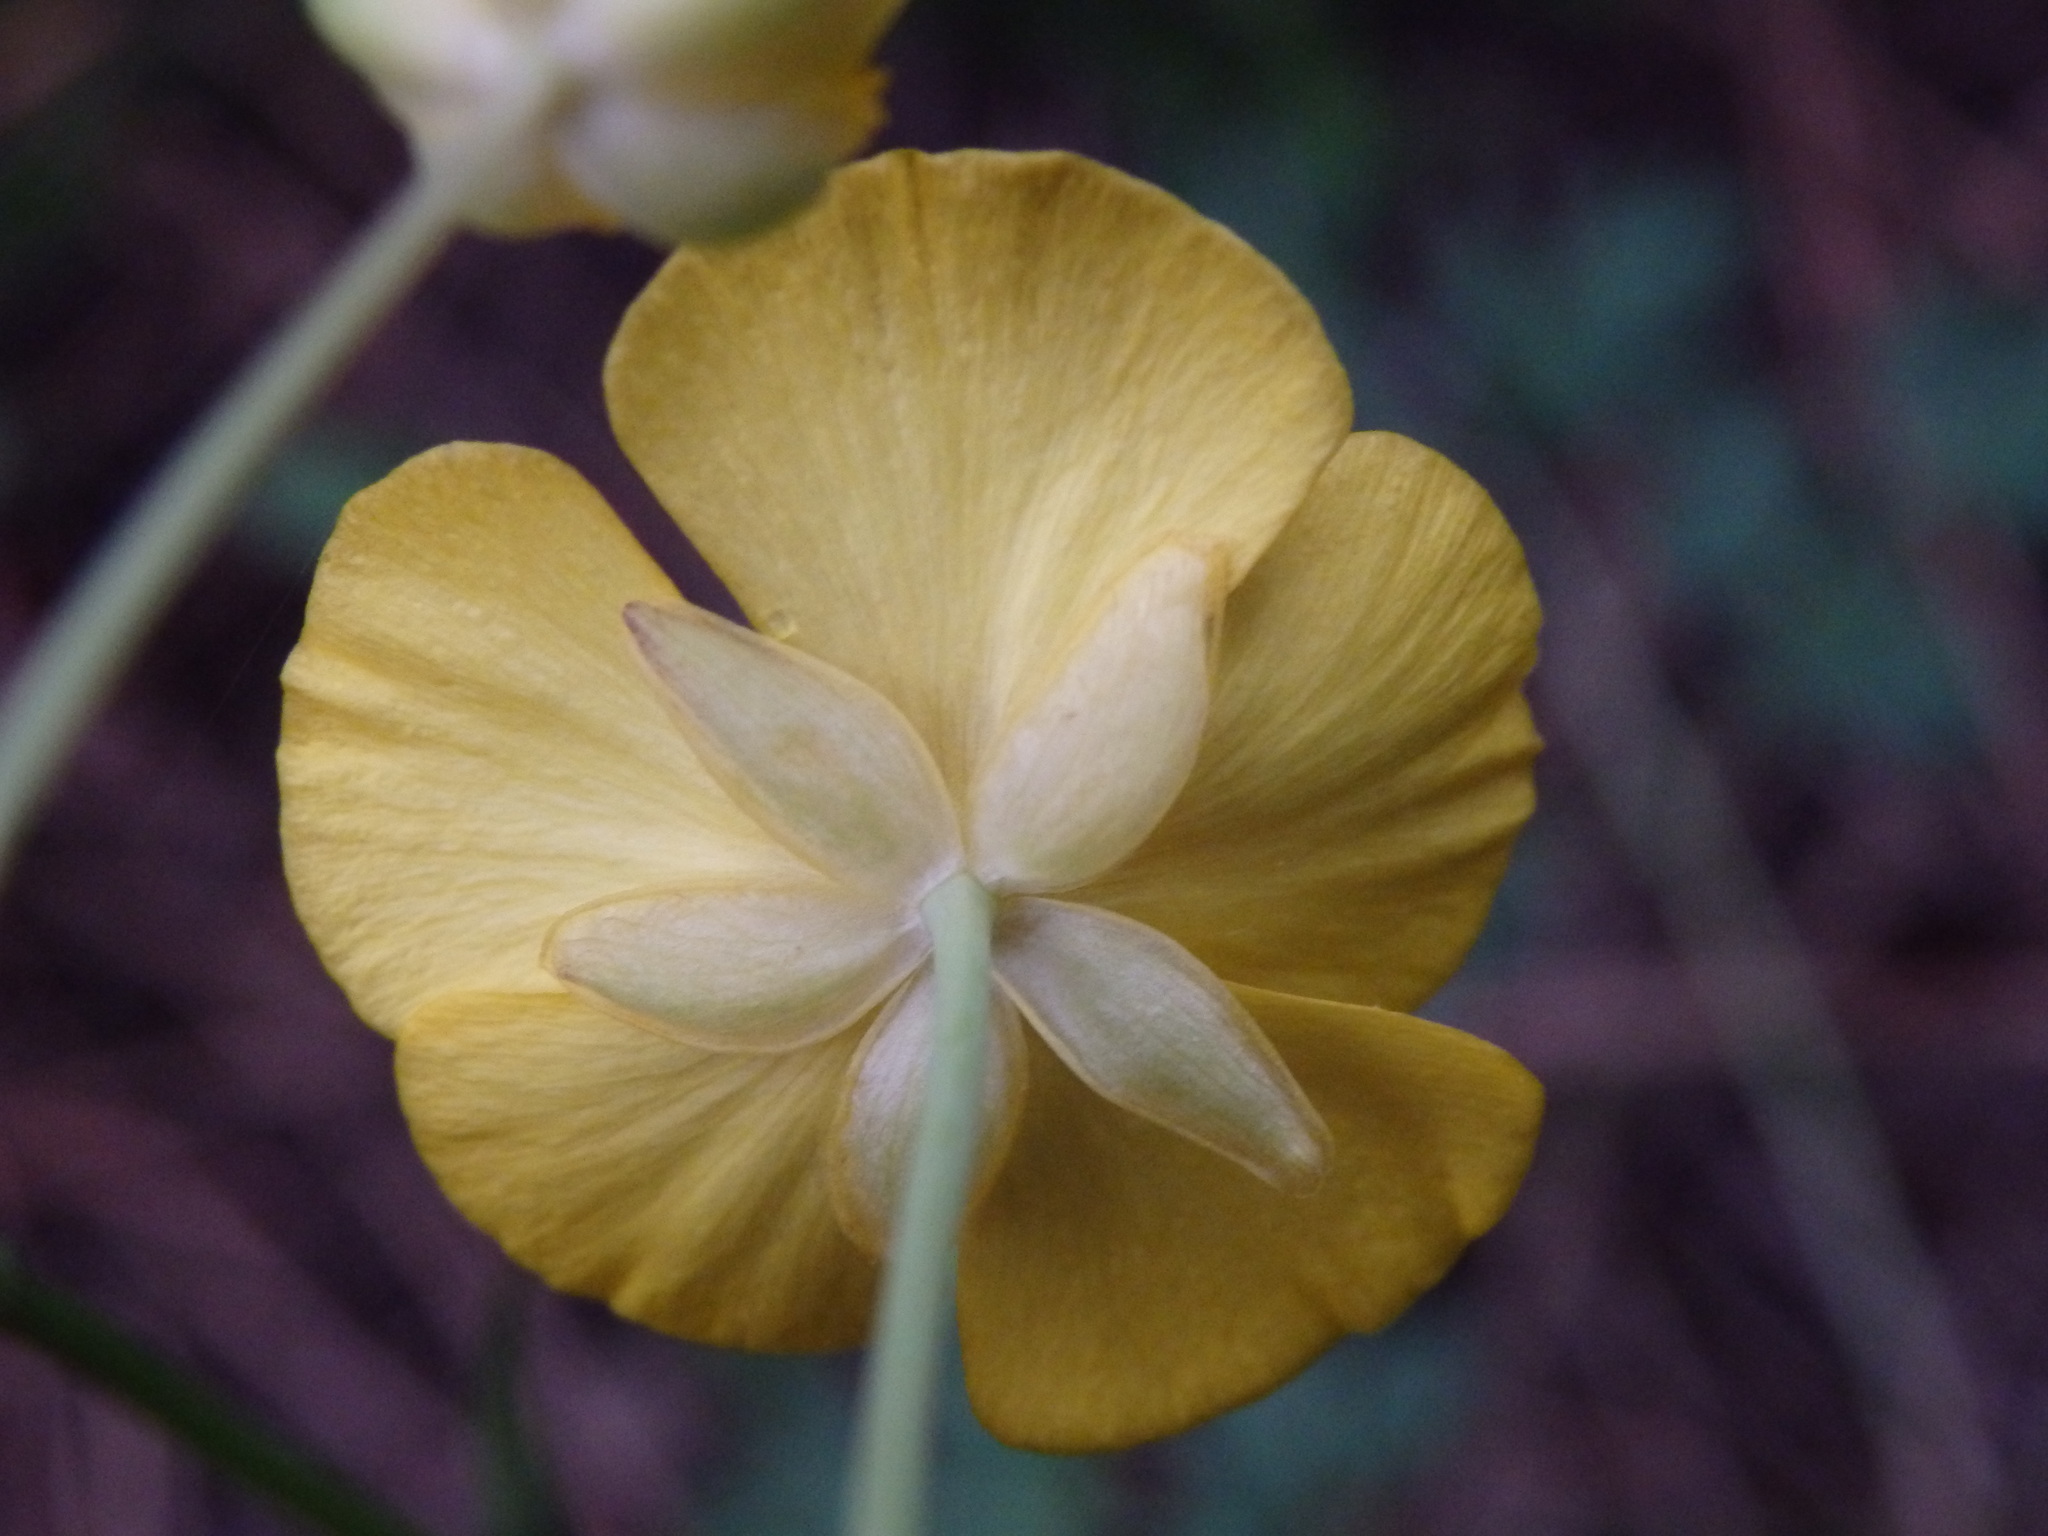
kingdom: Plantae
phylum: Tracheophyta
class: Magnoliopsida
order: Ranunculales
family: Ranunculaceae
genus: Ranunculus
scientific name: Ranunculus bupleuroides
